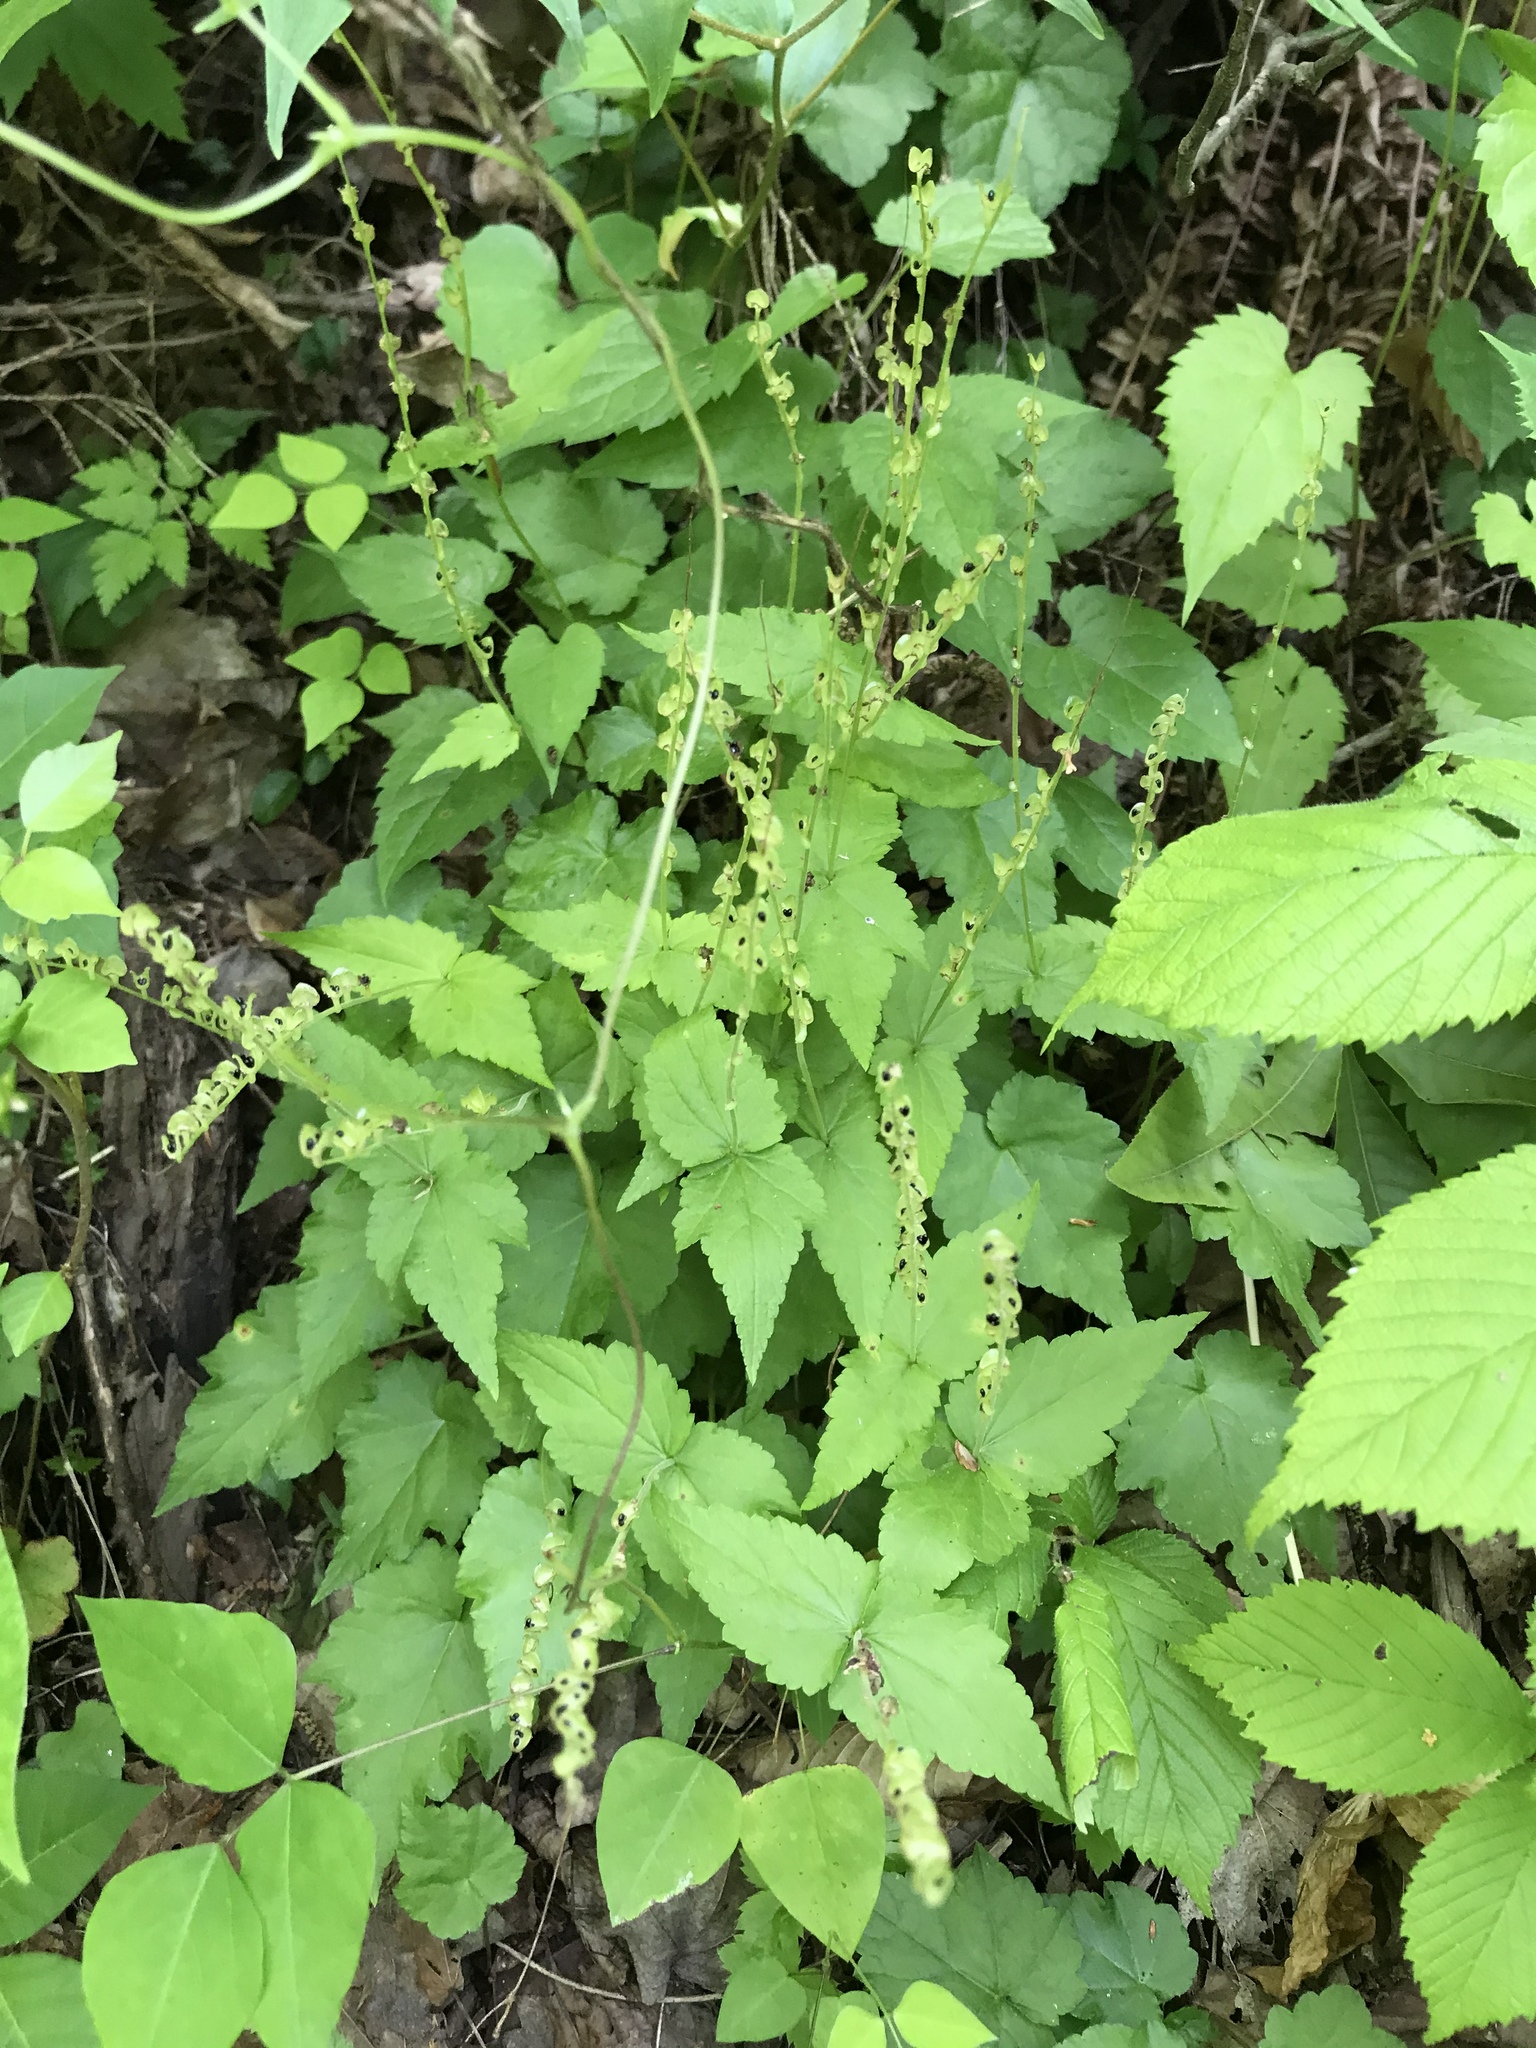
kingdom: Plantae
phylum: Tracheophyta
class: Magnoliopsida
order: Saxifragales
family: Saxifragaceae
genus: Mitella
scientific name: Mitella diphylla
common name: Coolwort
